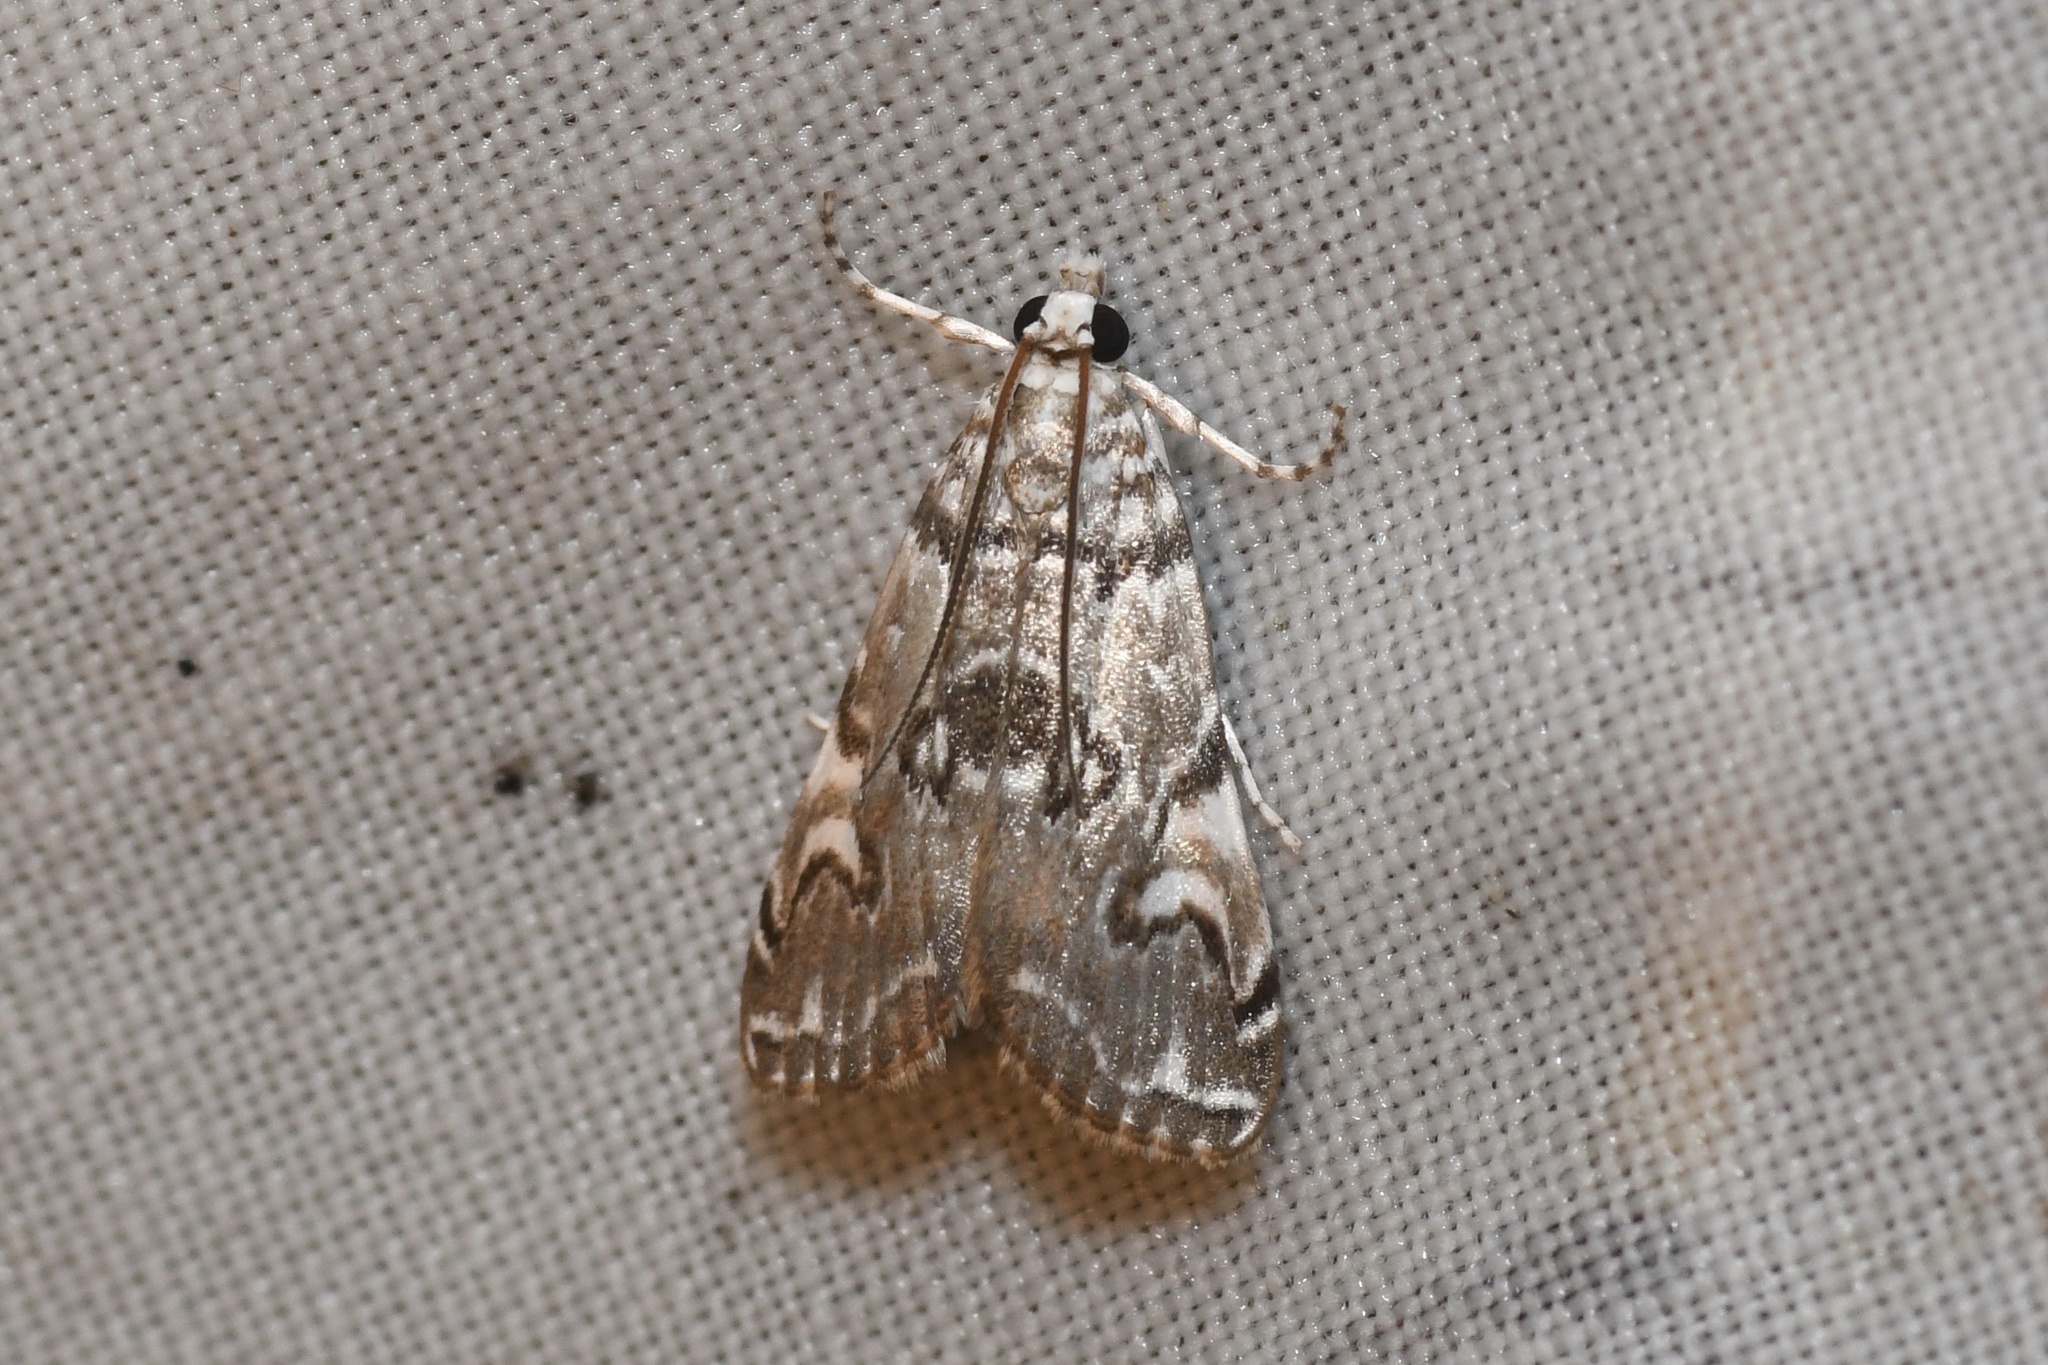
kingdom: Animalia
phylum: Arthropoda
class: Insecta
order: Lepidoptera
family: Crambidae
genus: Elophila
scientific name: Elophila gyralis
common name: Waterlily borer moth
